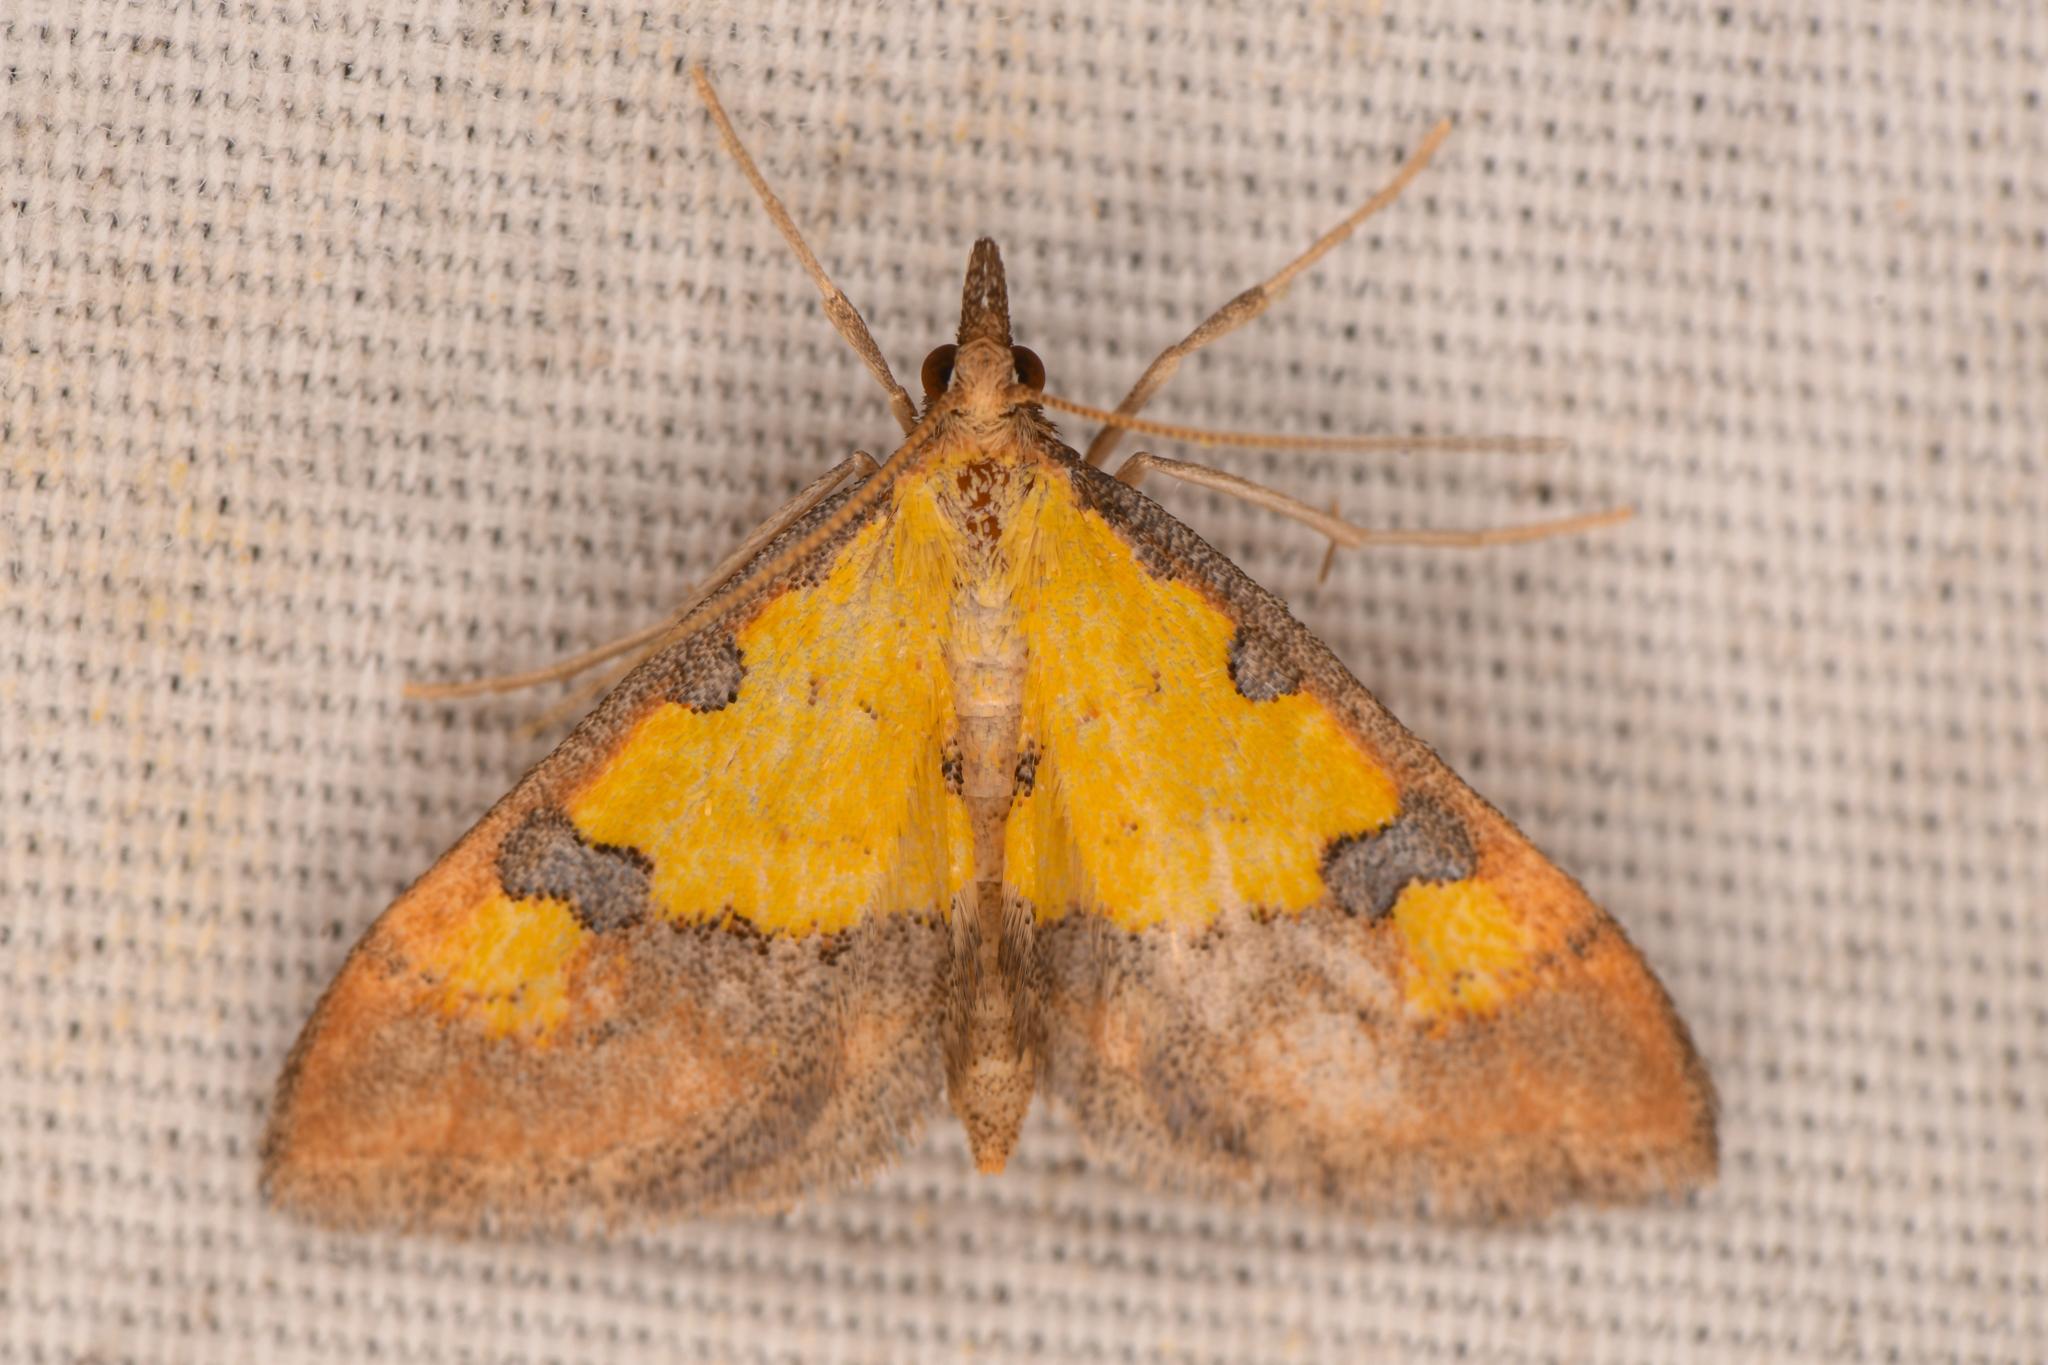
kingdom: Animalia
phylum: Arthropoda
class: Insecta
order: Lepidoptera
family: Crambidae
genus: Choristostigma
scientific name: Choristostigma zephyralis
